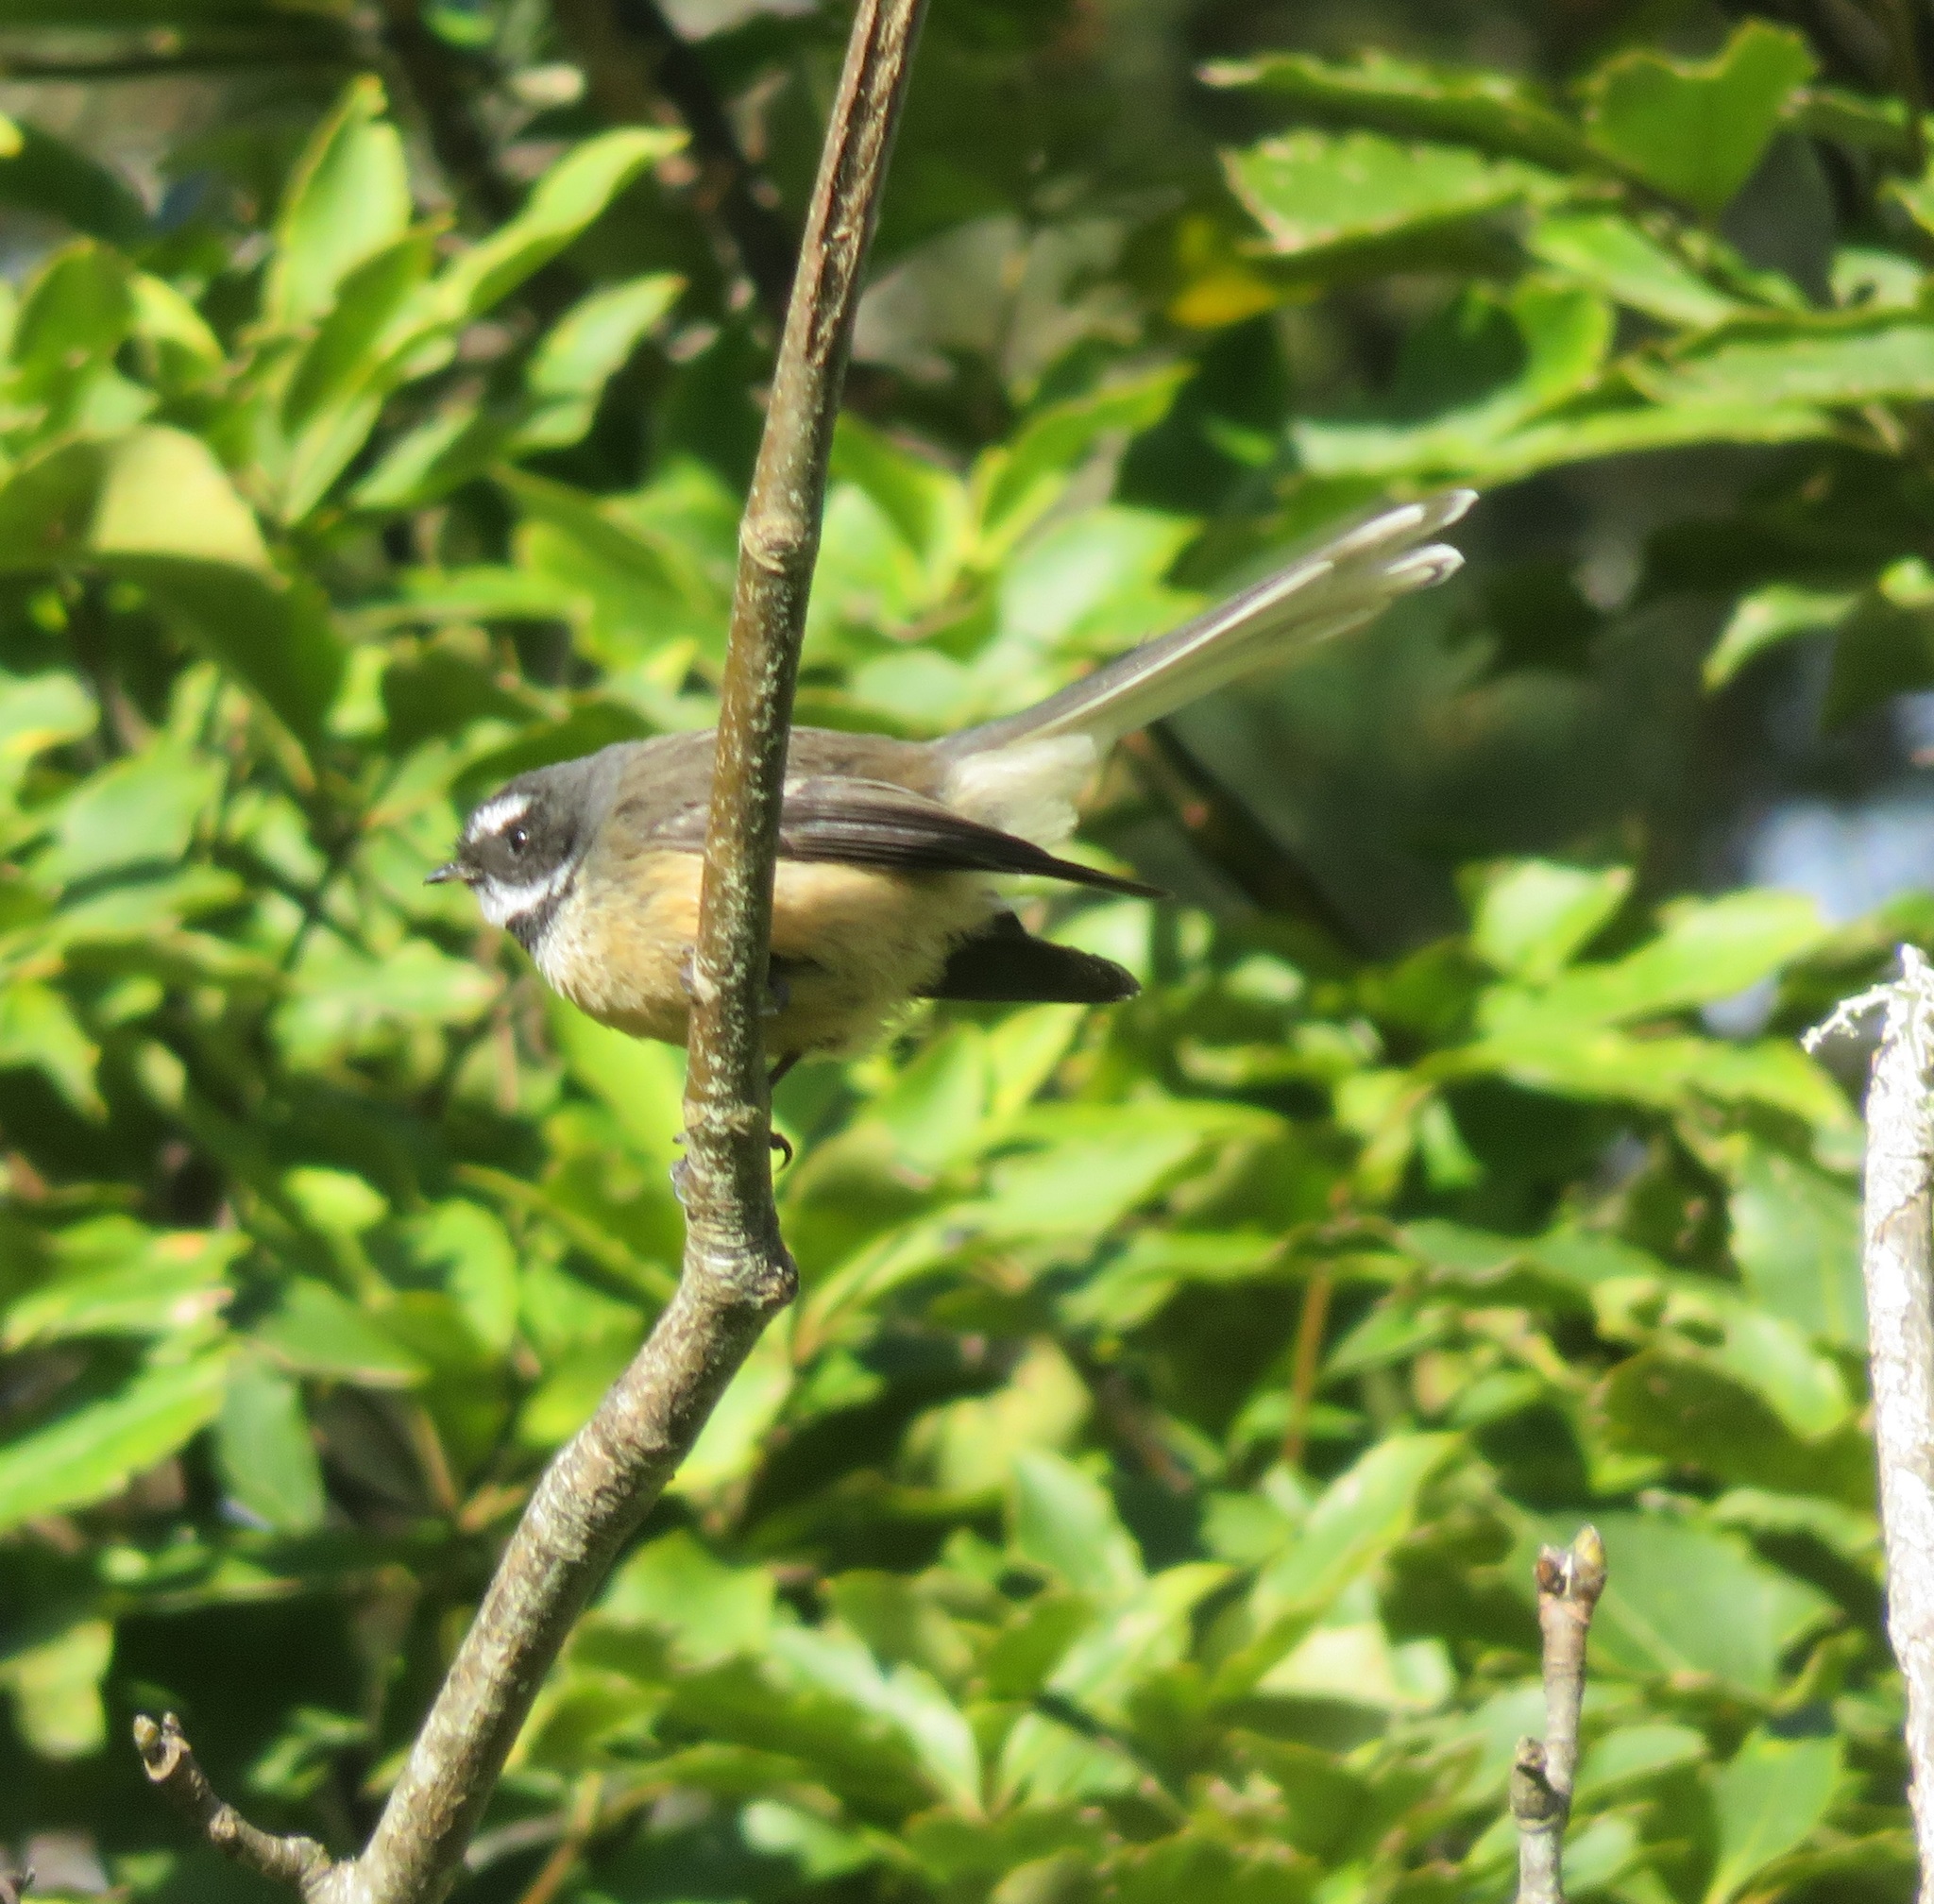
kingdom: Animalia
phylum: Chordata
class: Aves
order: Passeriformes
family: Rhipiduridae
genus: Rhipidura
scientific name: Rhipidura fuliginosa
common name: New zealand fantail
